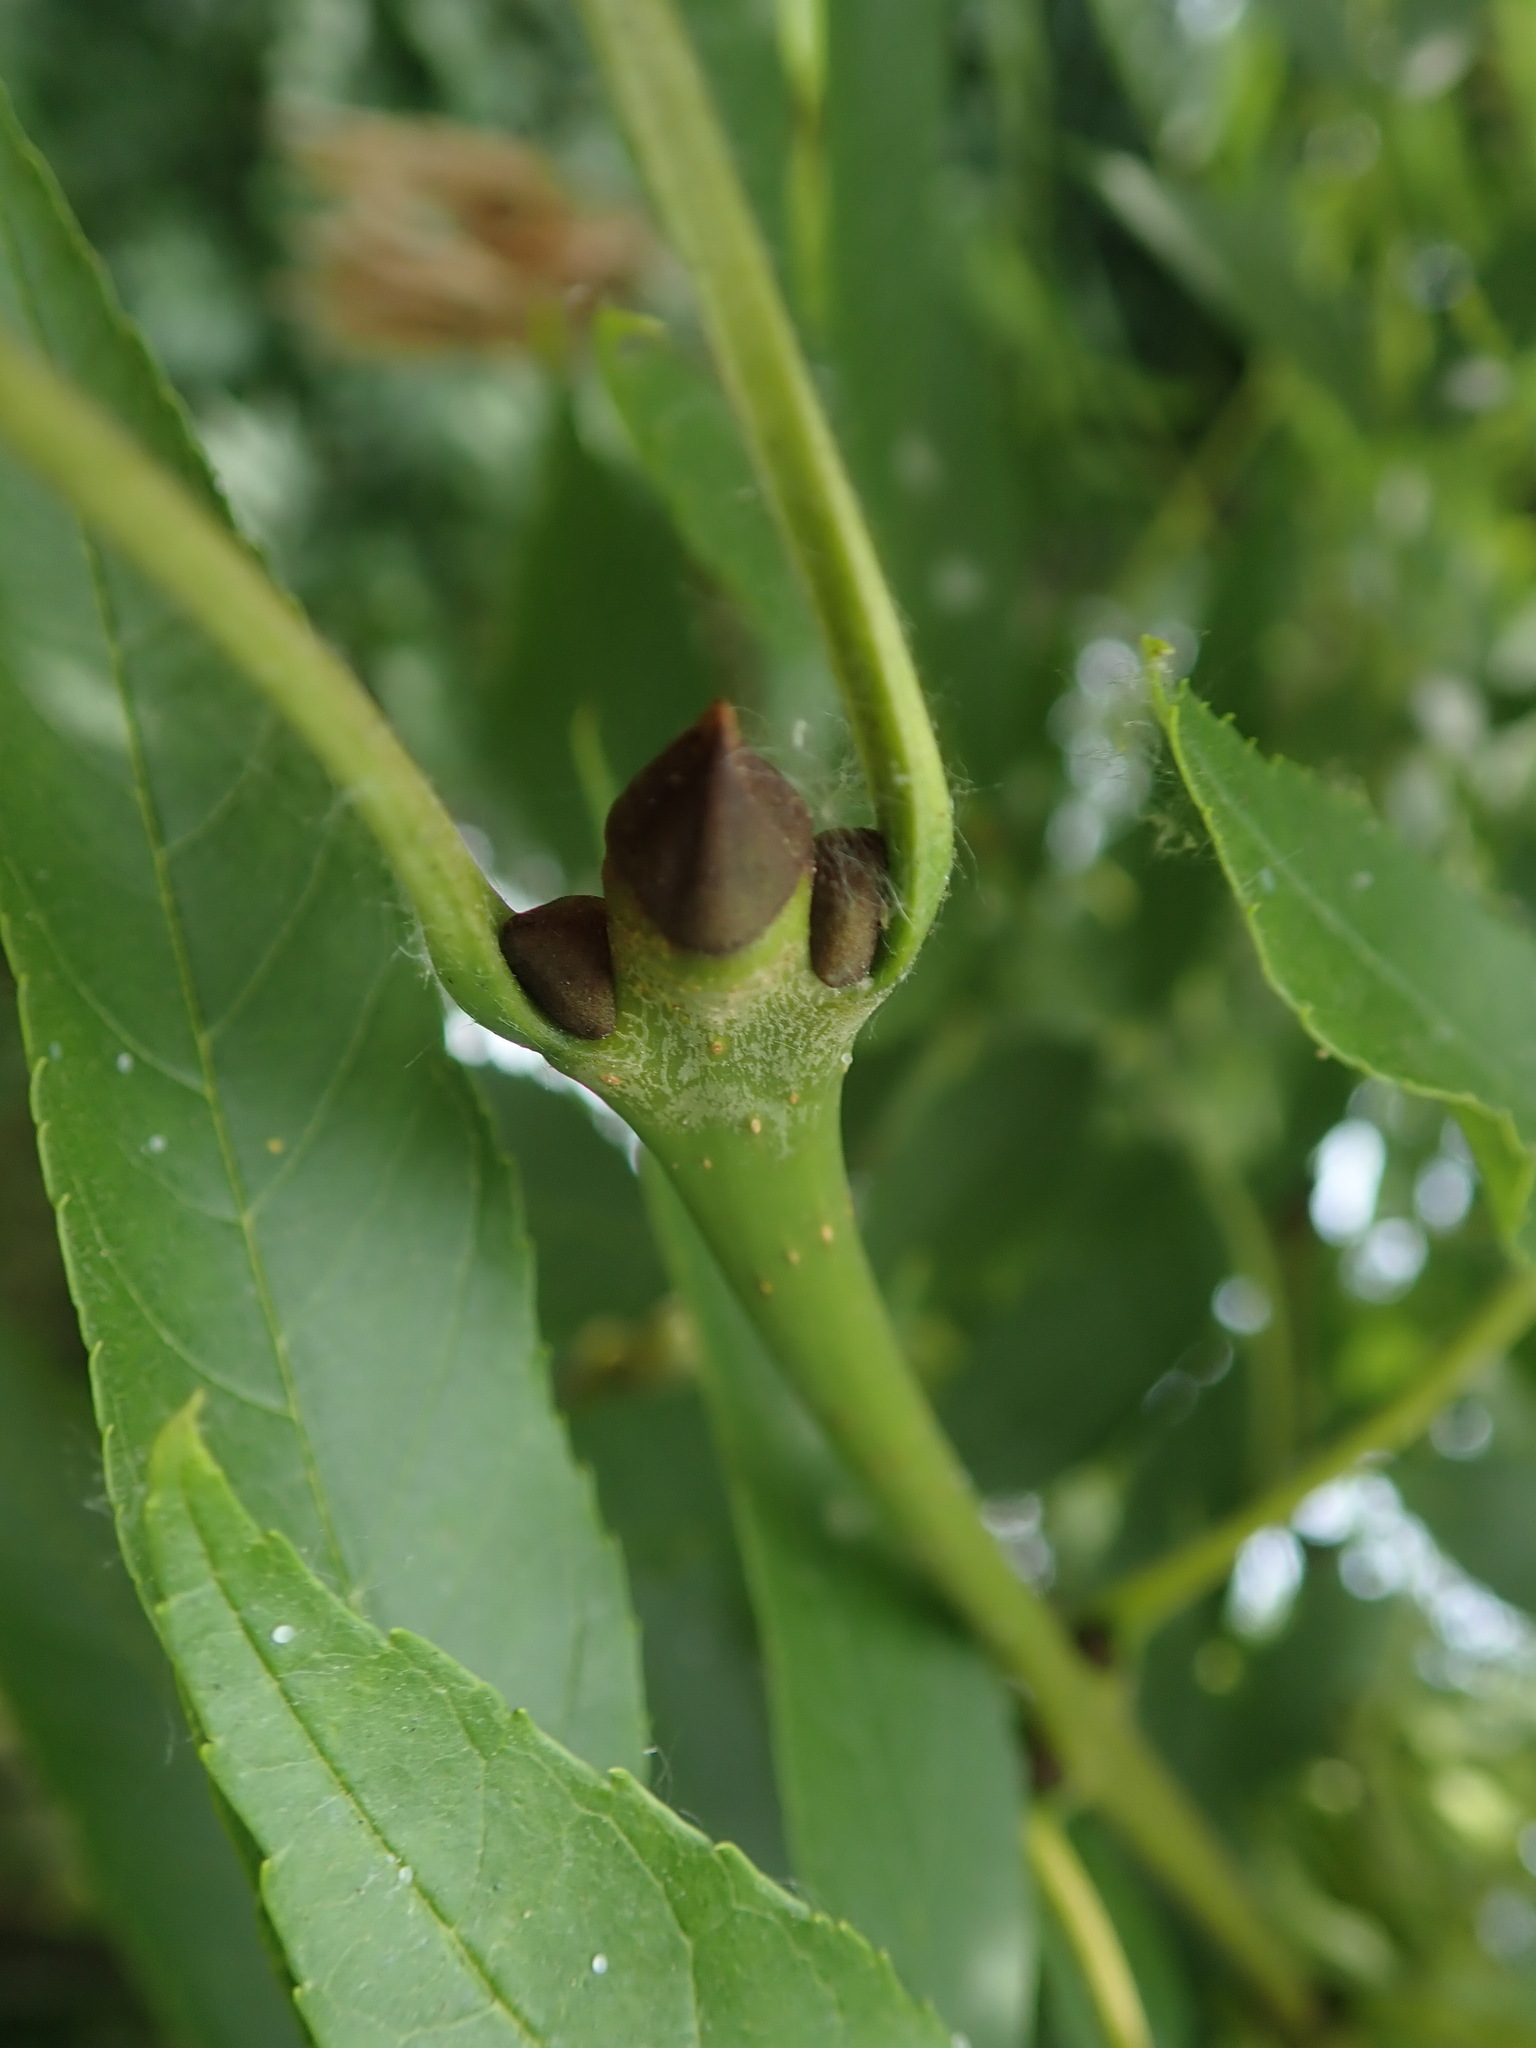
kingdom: Plantae
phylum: Tracheophyta
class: Magnoliopsida
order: Lamiales
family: Oleaceae
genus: Fraxinus
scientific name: Fraxinus excelsior
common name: European ash
